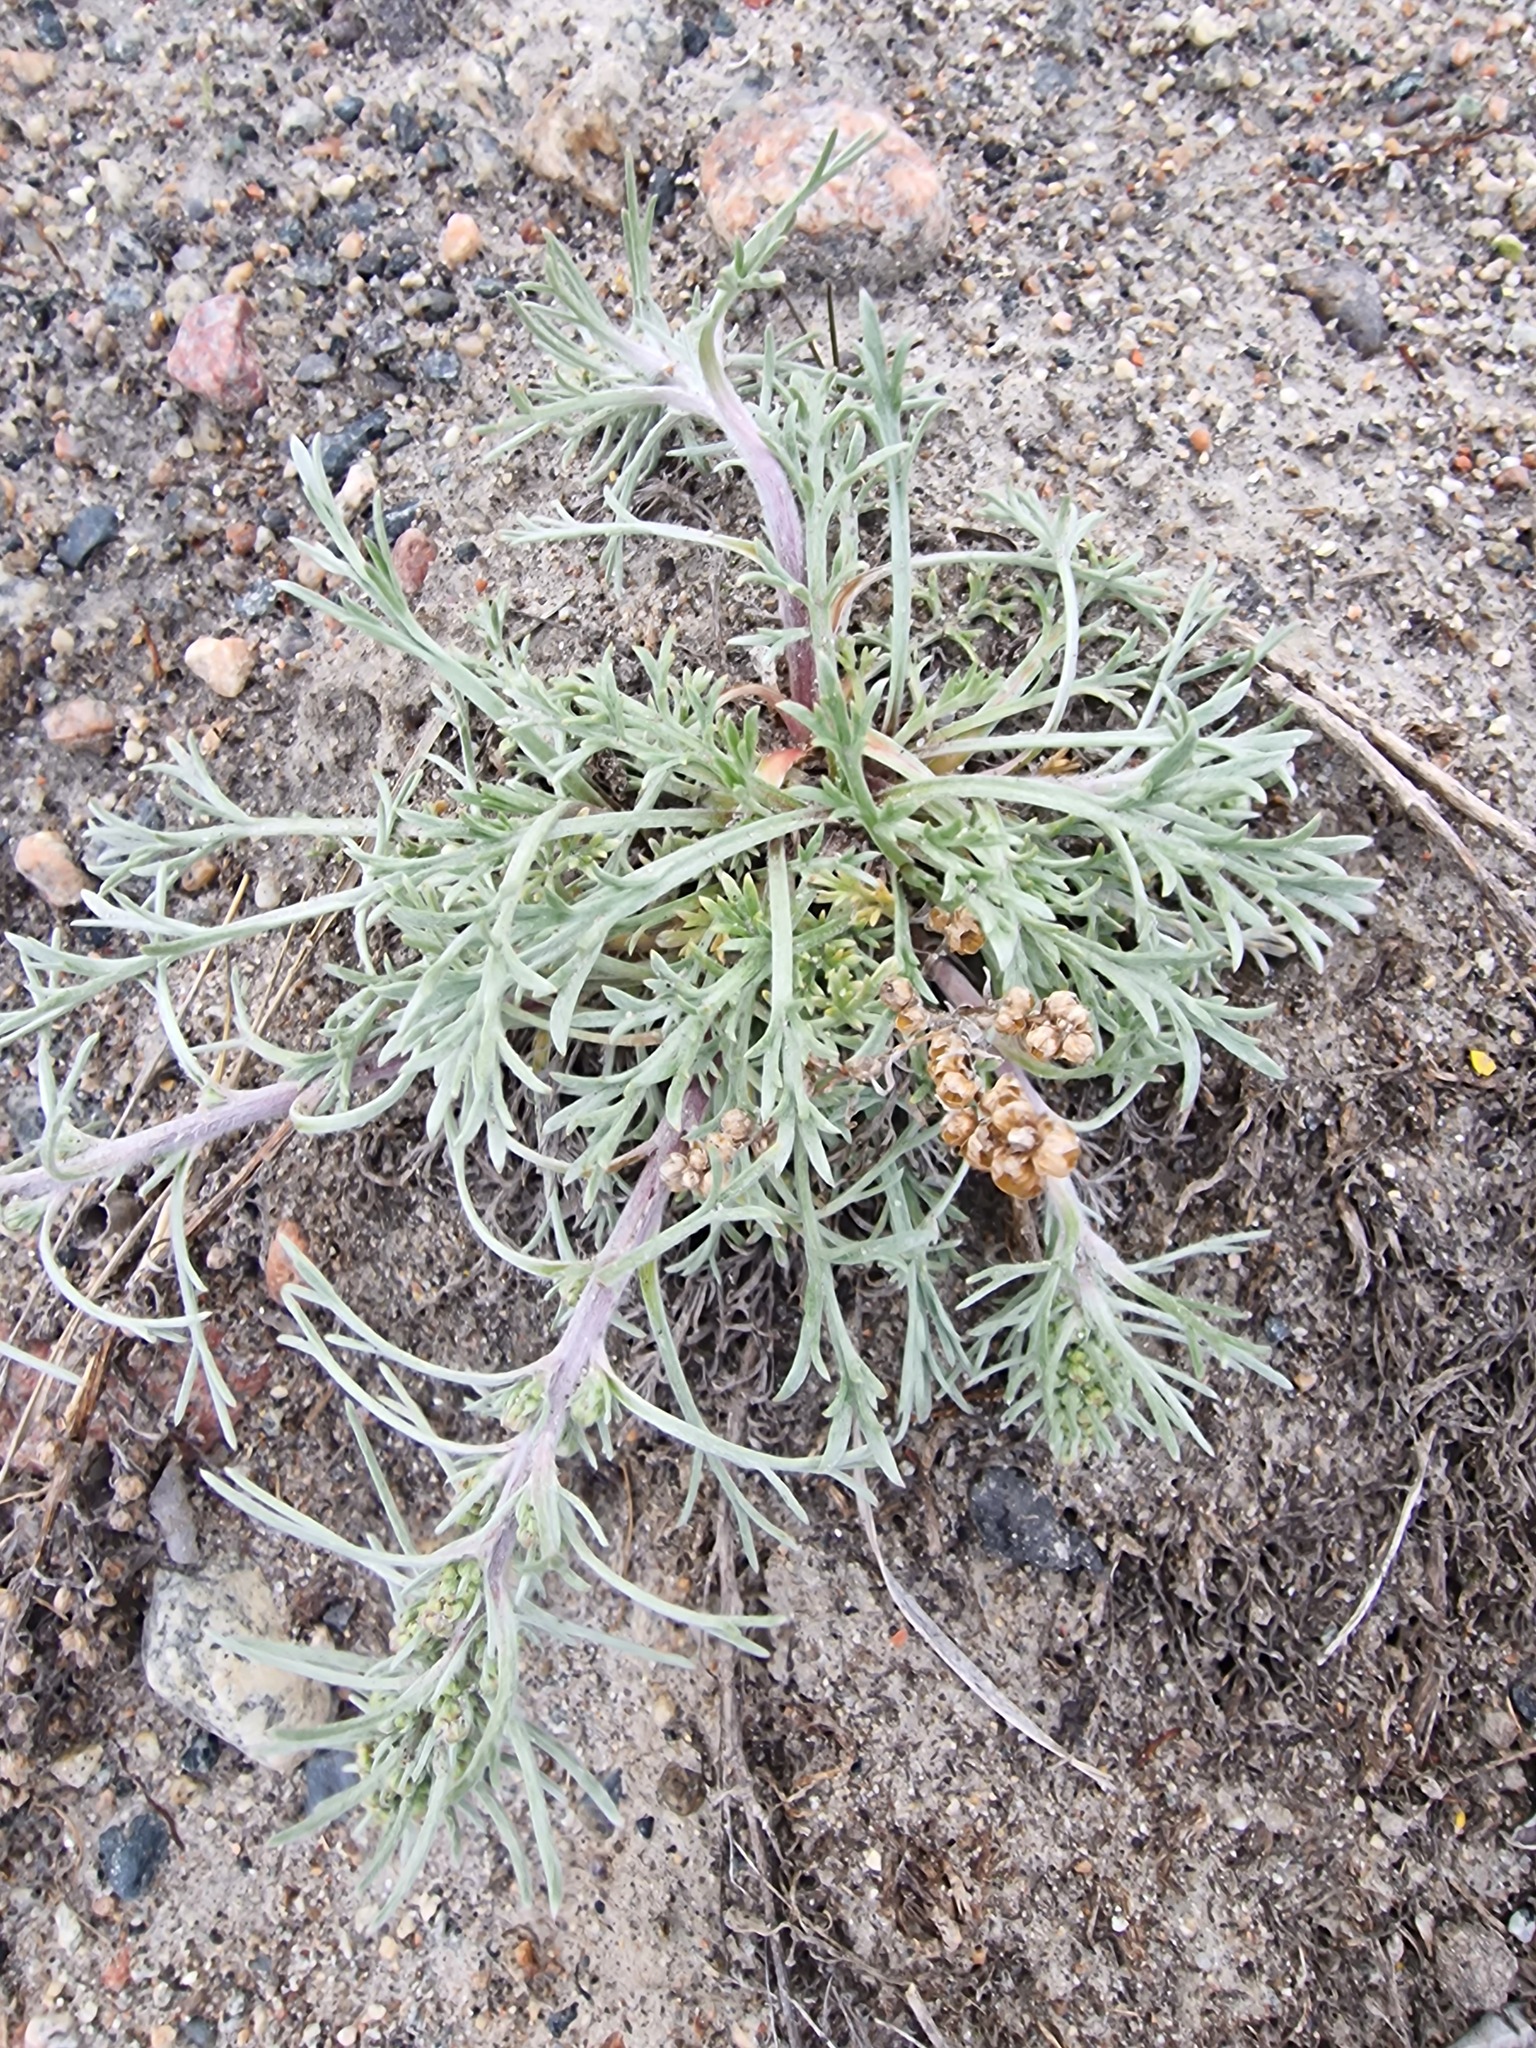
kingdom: Plantae
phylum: Tracheophyta
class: Magnoliopsida
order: Asterales
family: Asteraceae
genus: Artemisia
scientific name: Artemisia borealis
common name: Boreal sage
